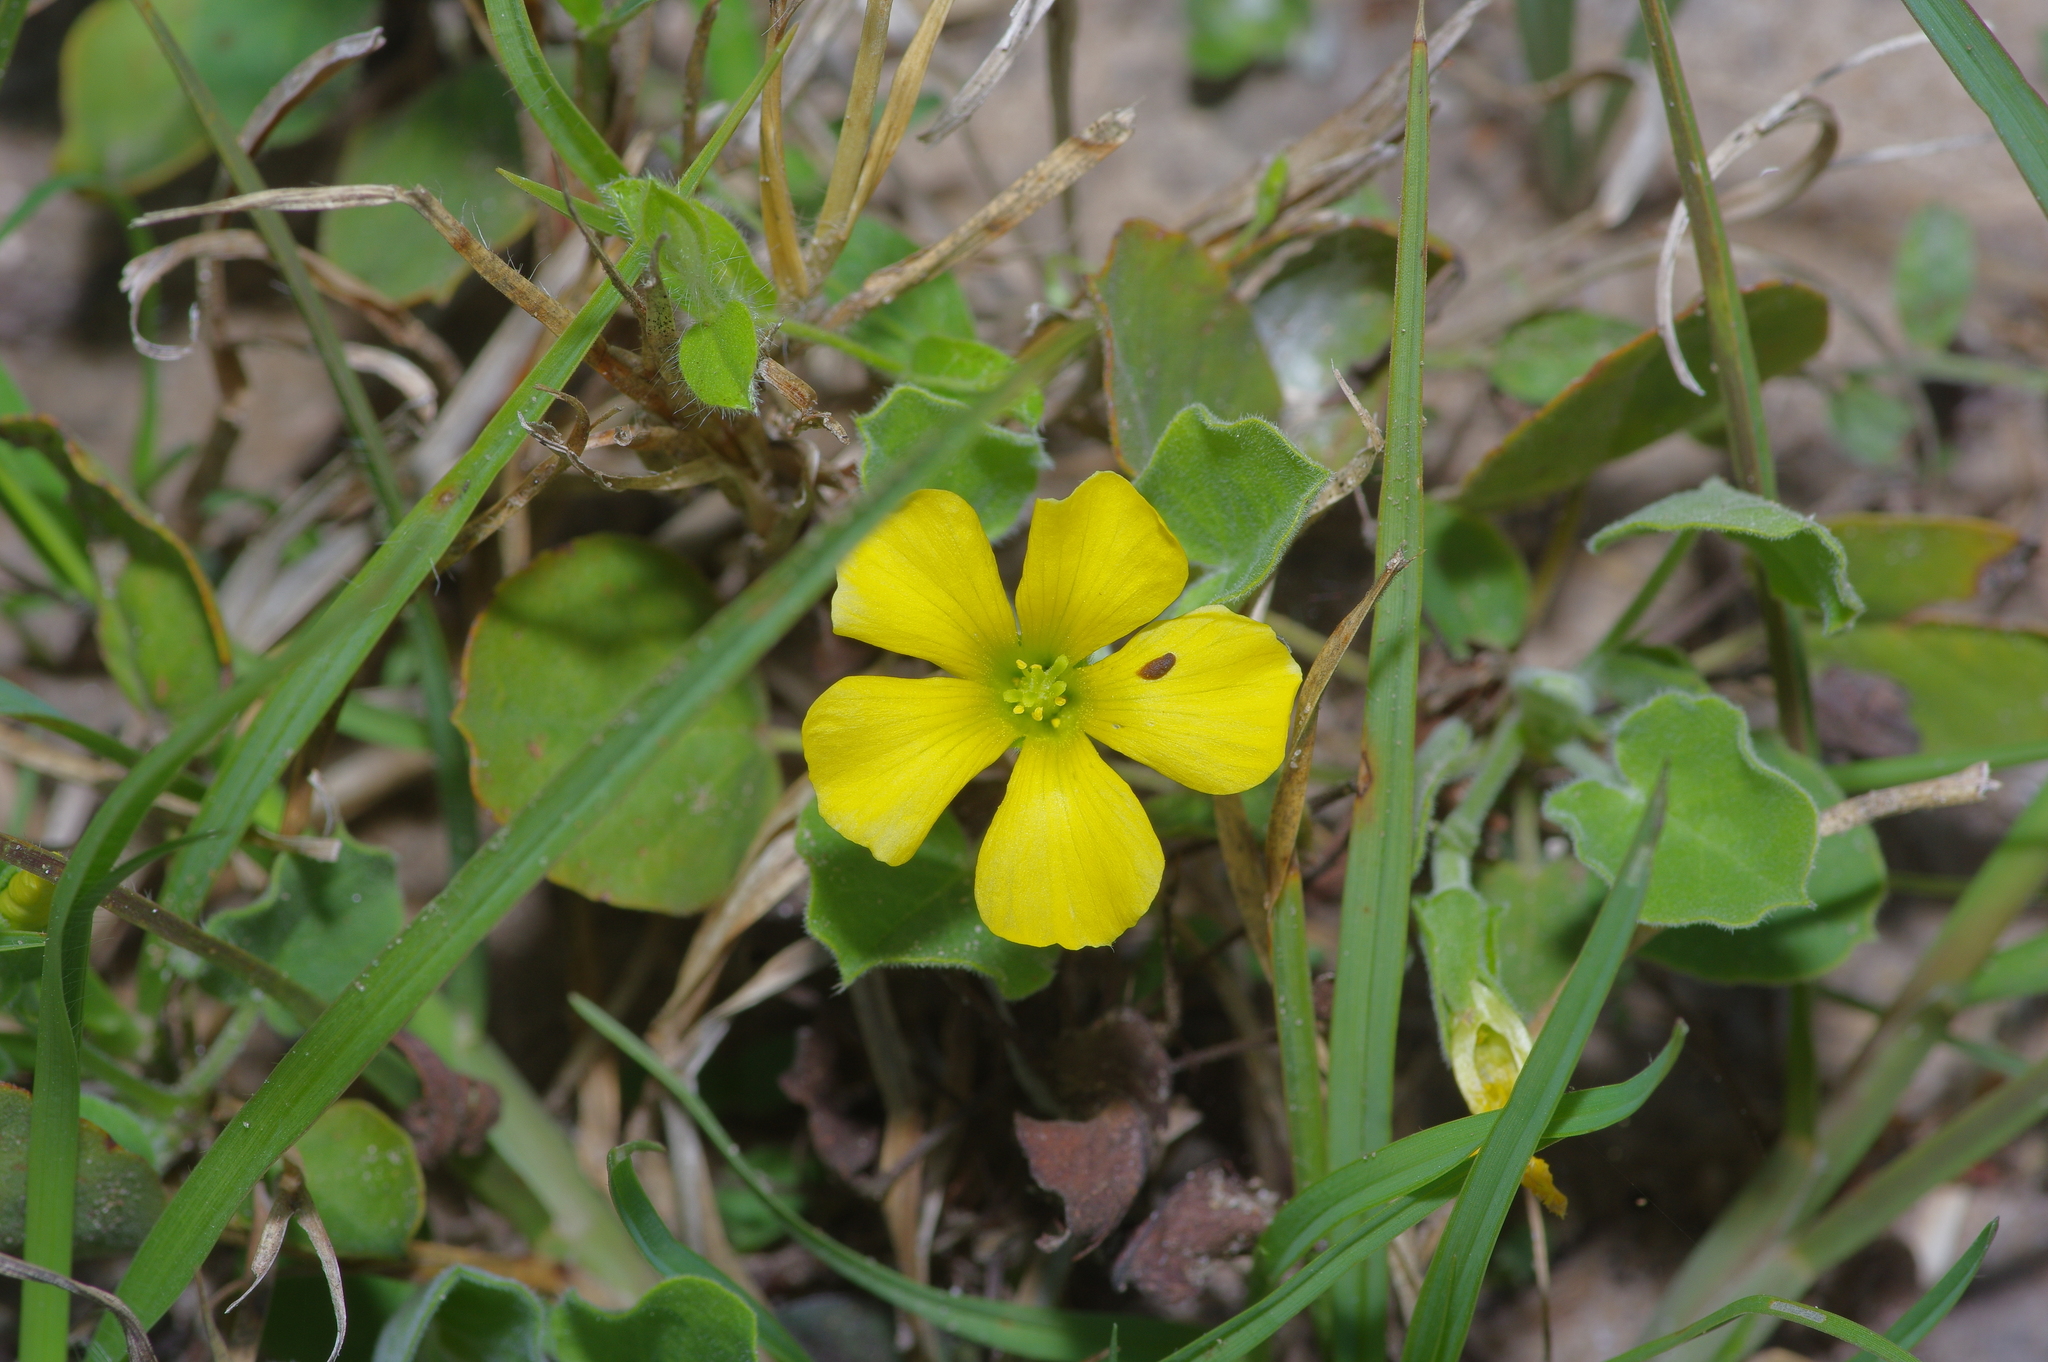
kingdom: Plantae
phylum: Tracheophyta
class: Magnoliopsida
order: Oxalidales
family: Oxalidaceae
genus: Oxalis
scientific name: Oxalis dichondrifolia
